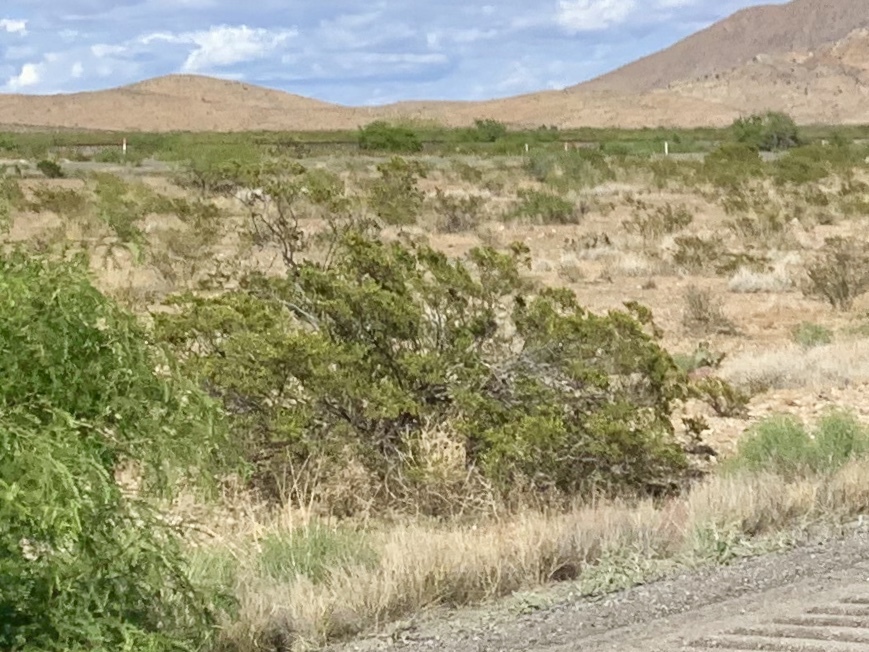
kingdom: Plantae
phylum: Tracheophyta
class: Magnoliopsida
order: Zygophyllales
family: Zygophyllaceae
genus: Larrea
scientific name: Larrea tridentata
